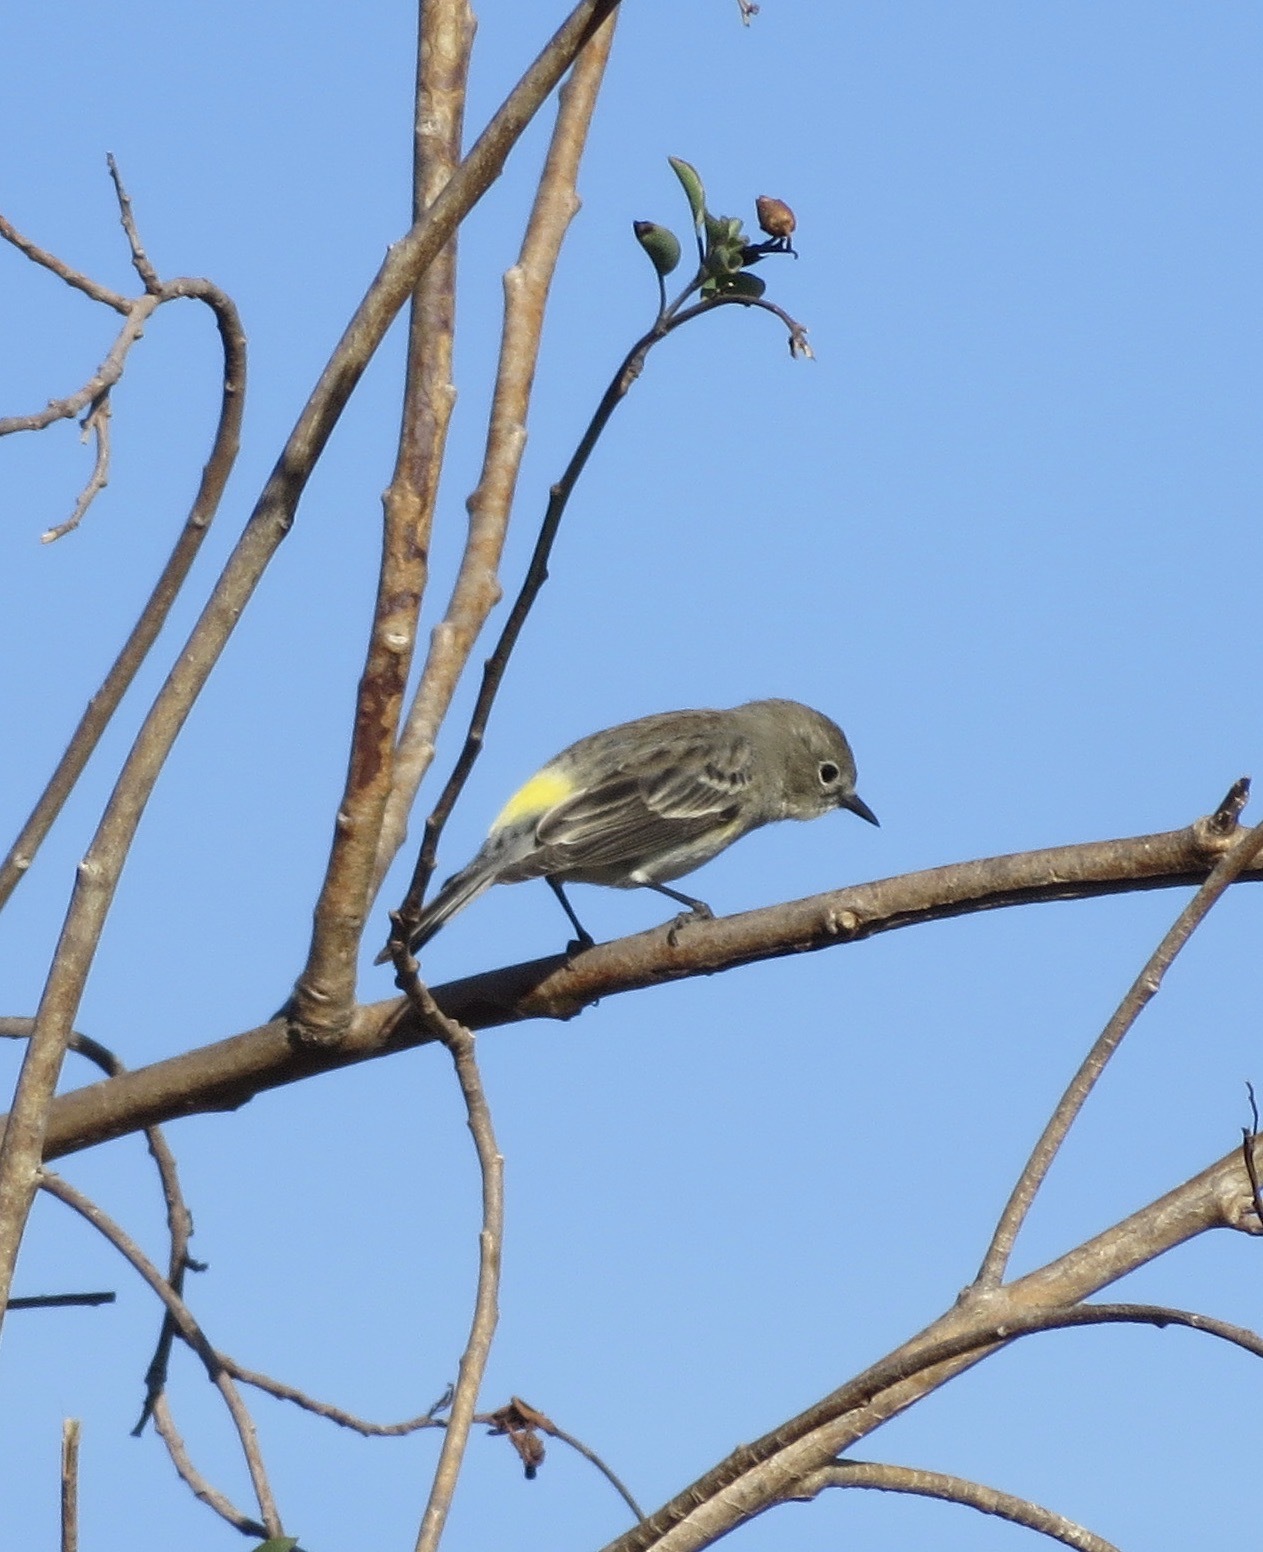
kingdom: Animalia
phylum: Chordata
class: Aves
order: Passeriformes
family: Parulidae
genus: Setophaga
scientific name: Setophaga coronata
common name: Myrtle warbler
